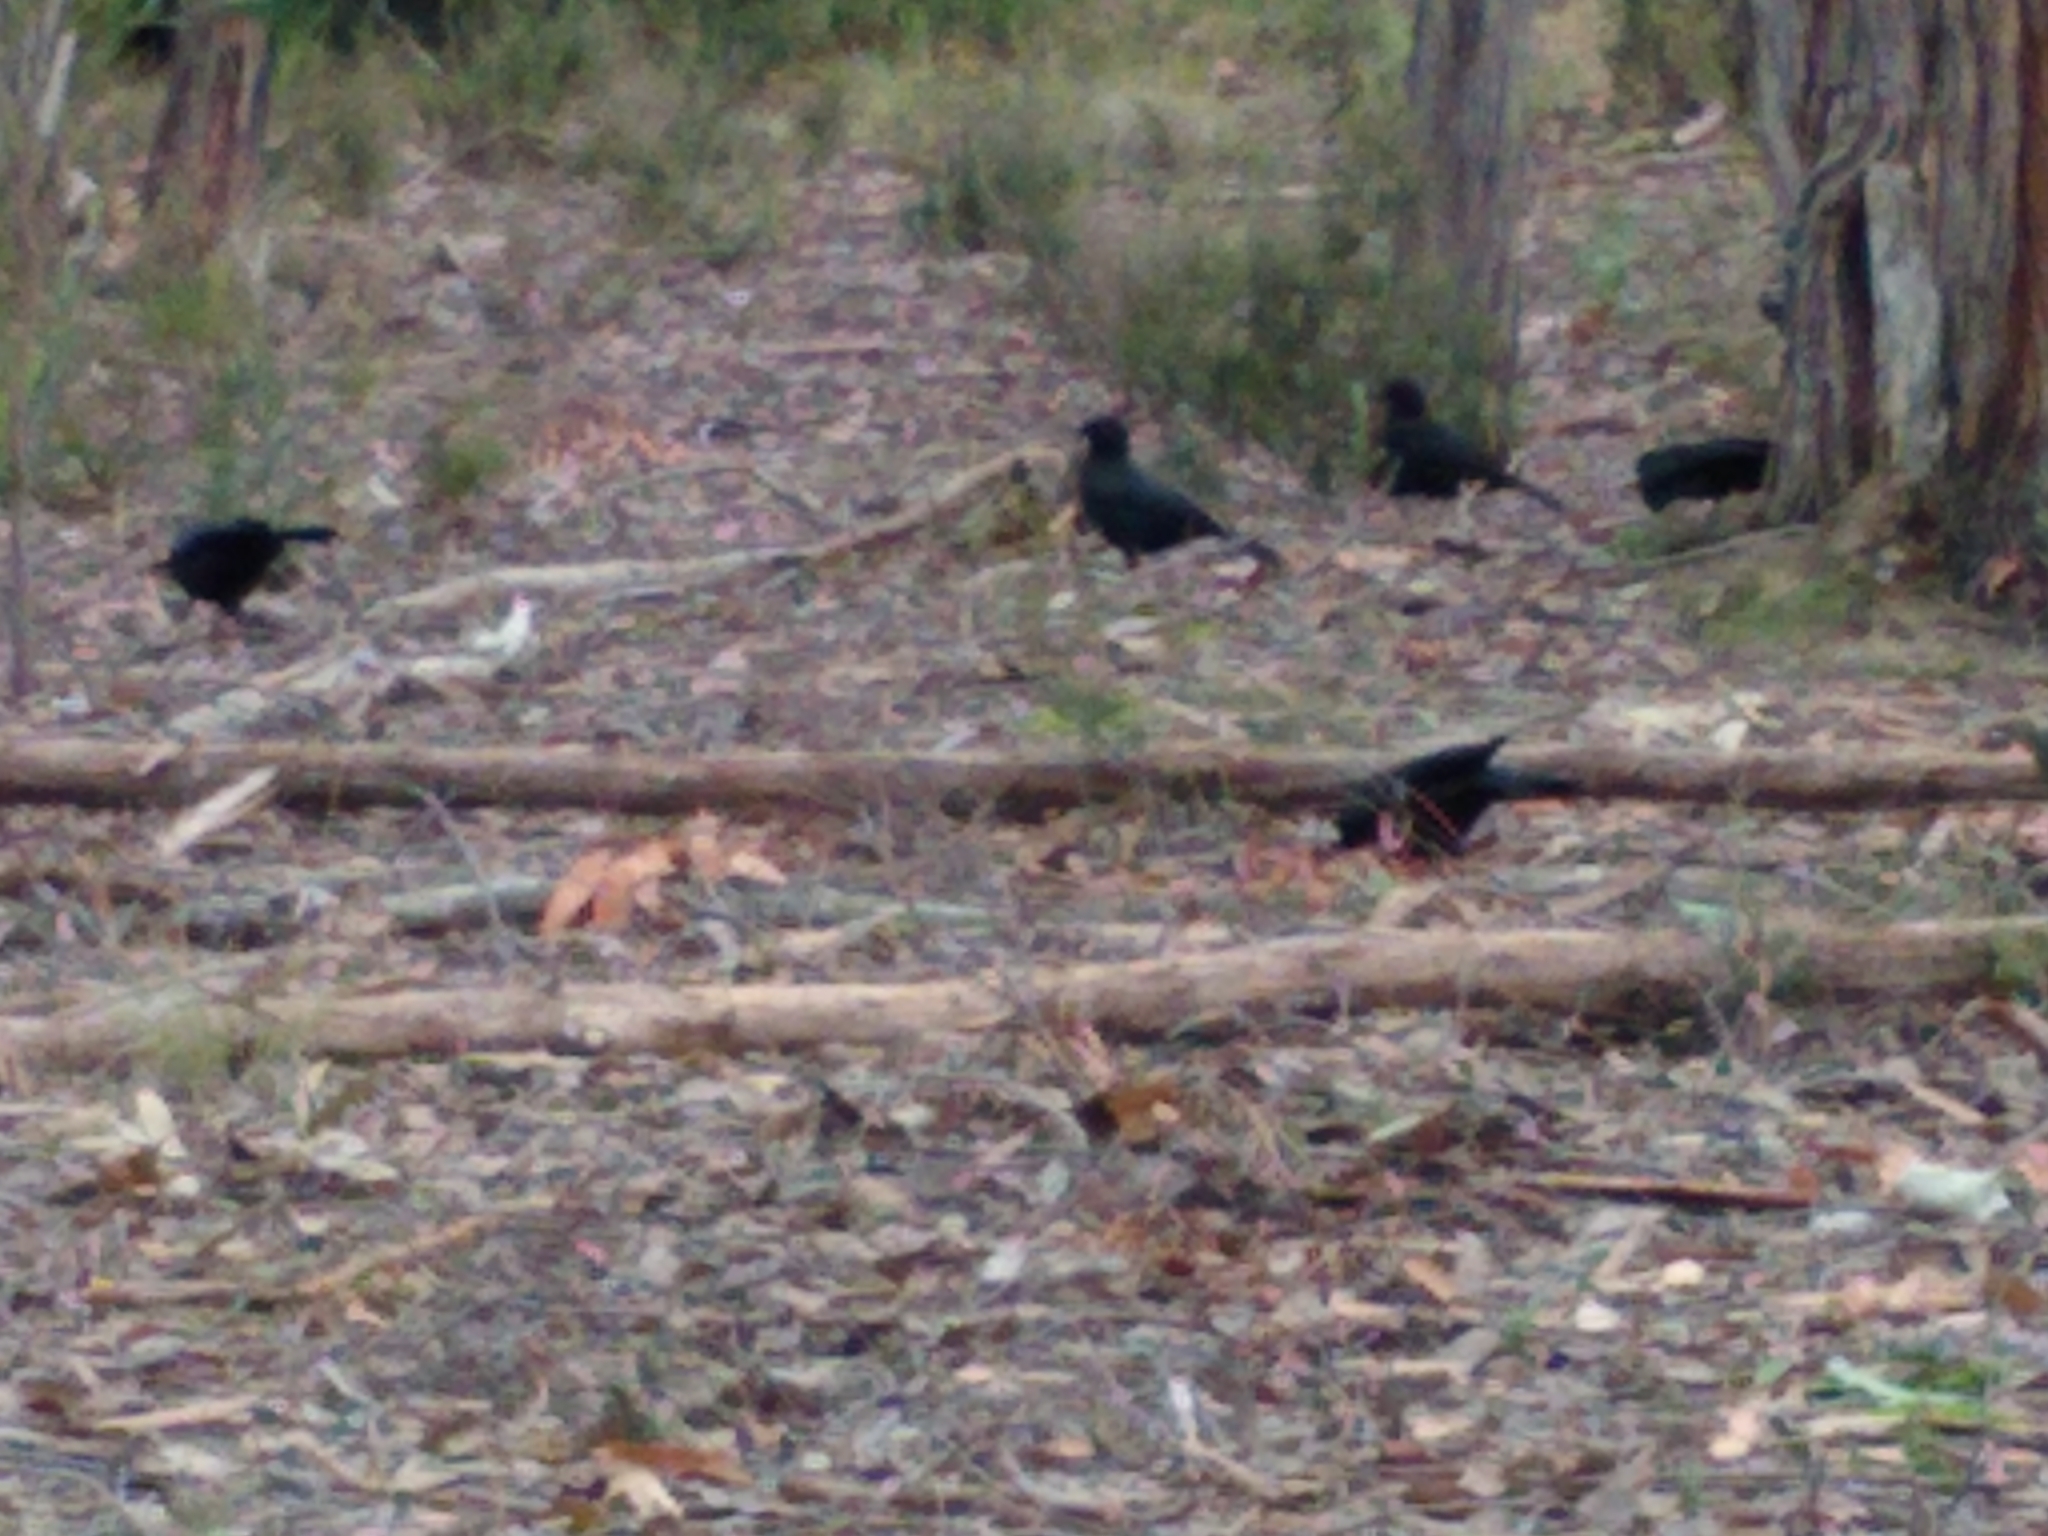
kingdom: Animalia
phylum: Chordata
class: Aves
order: Passeriformes
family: Corcoracidae
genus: Corcorax
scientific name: Corcorax melanoramphos
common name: White-winged chough
